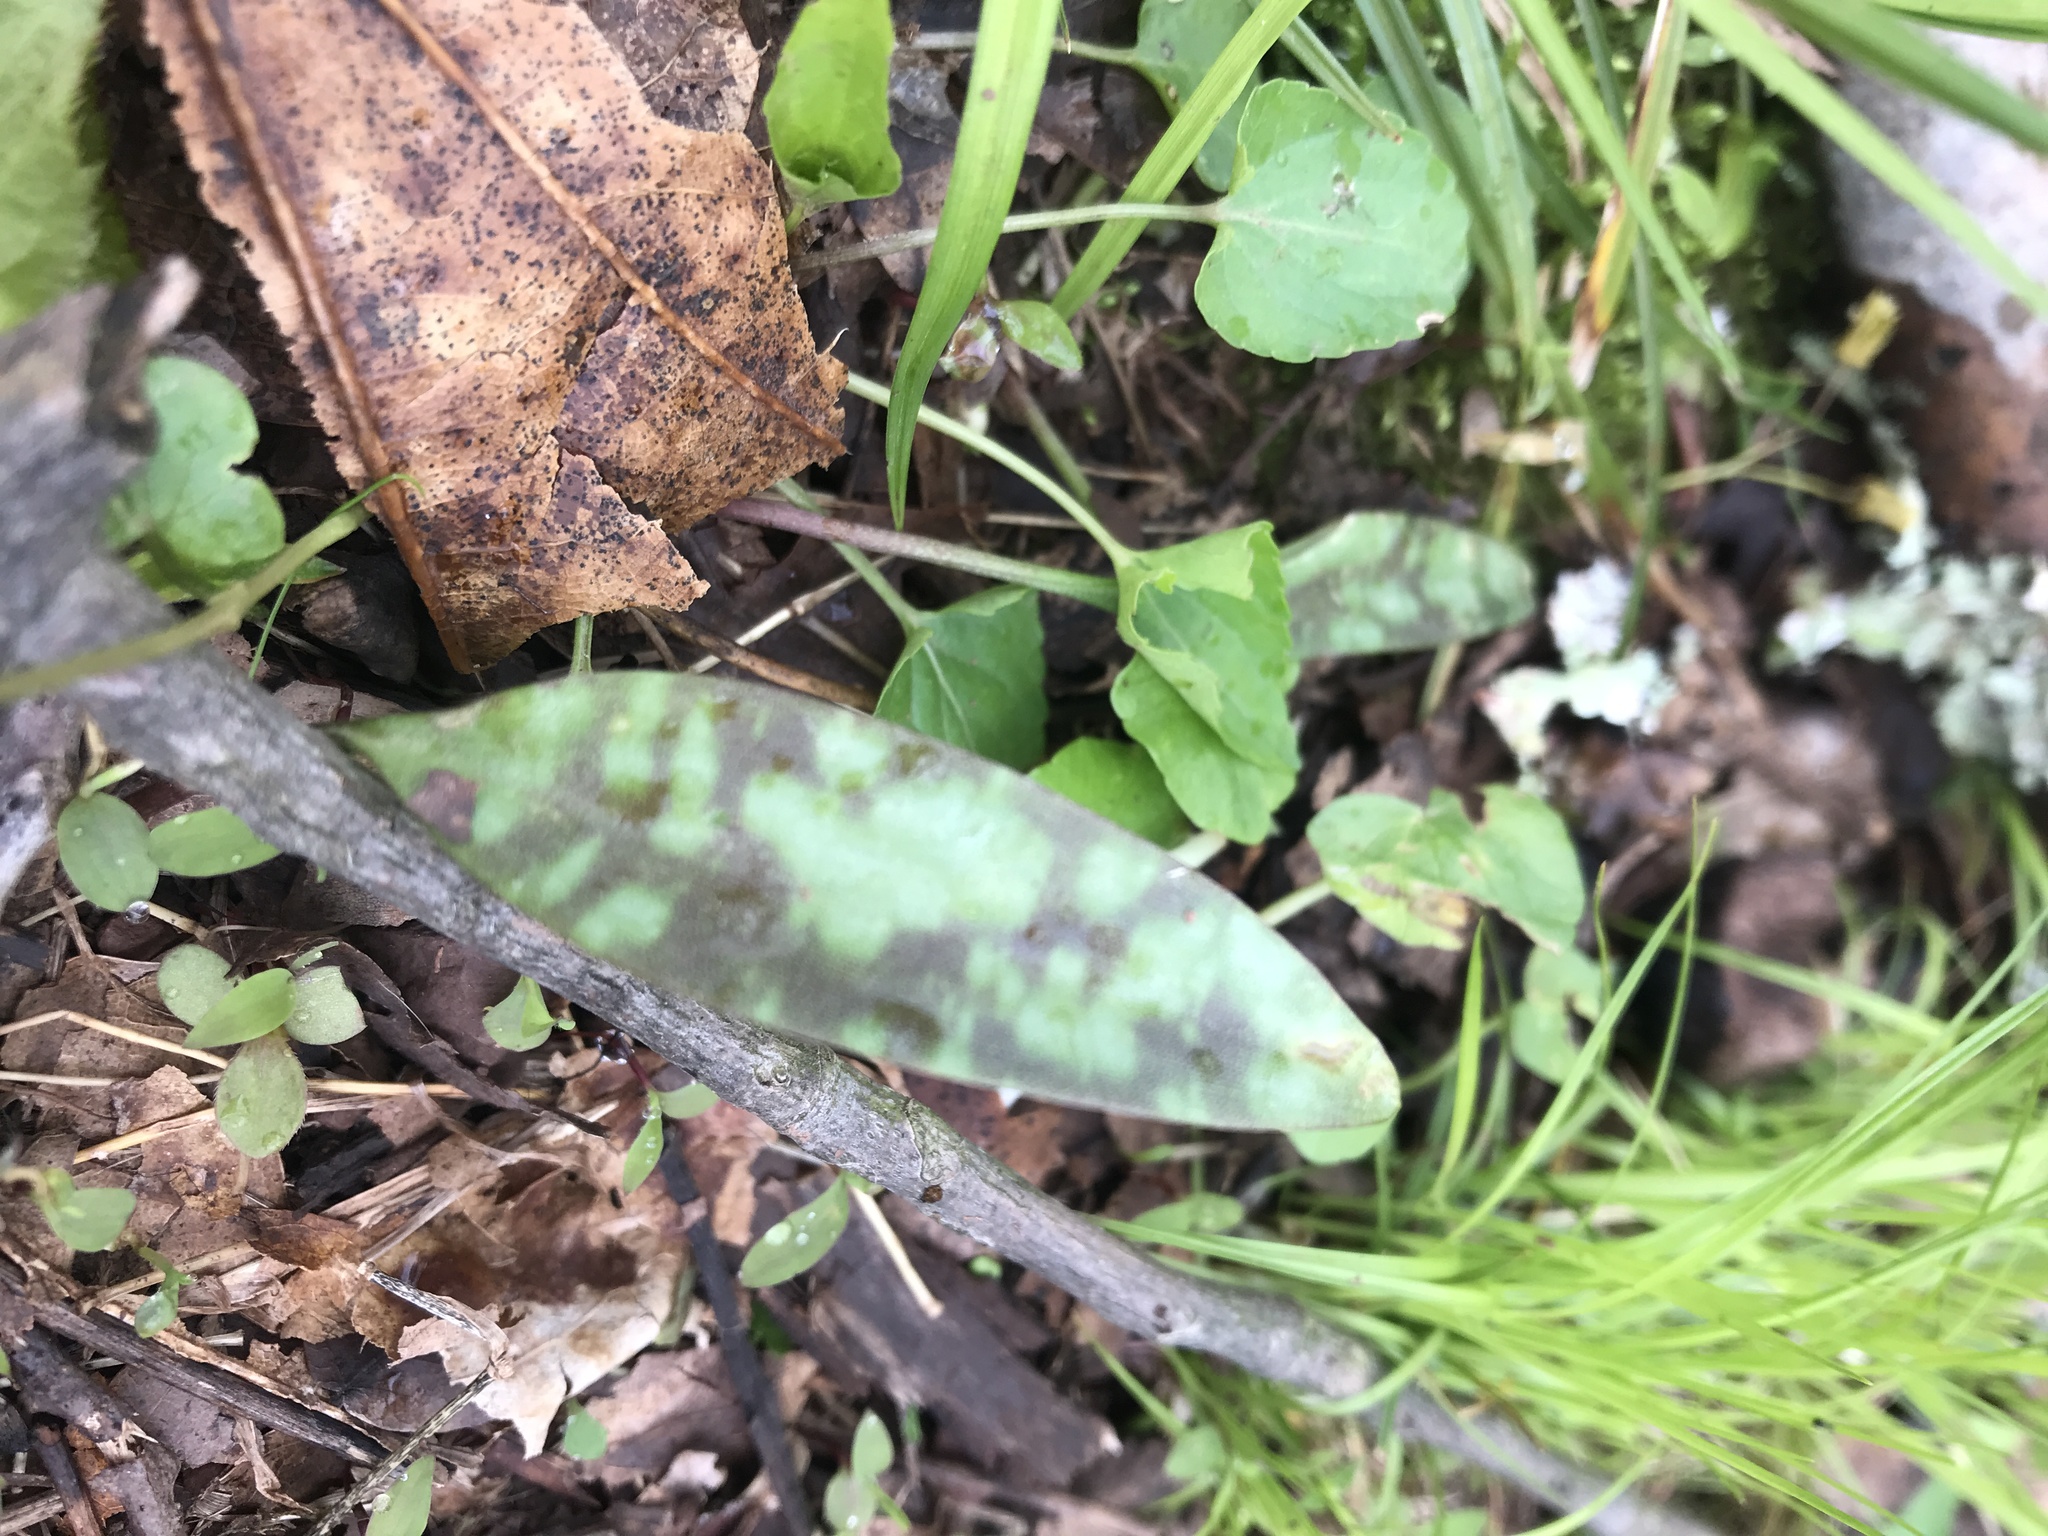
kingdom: Plantae
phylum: Tracheophyta
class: Liliopsida
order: Liliales
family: Liliaceae
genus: Erythronium
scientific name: Erythronium americanum
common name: Yellow adder's-tongue
